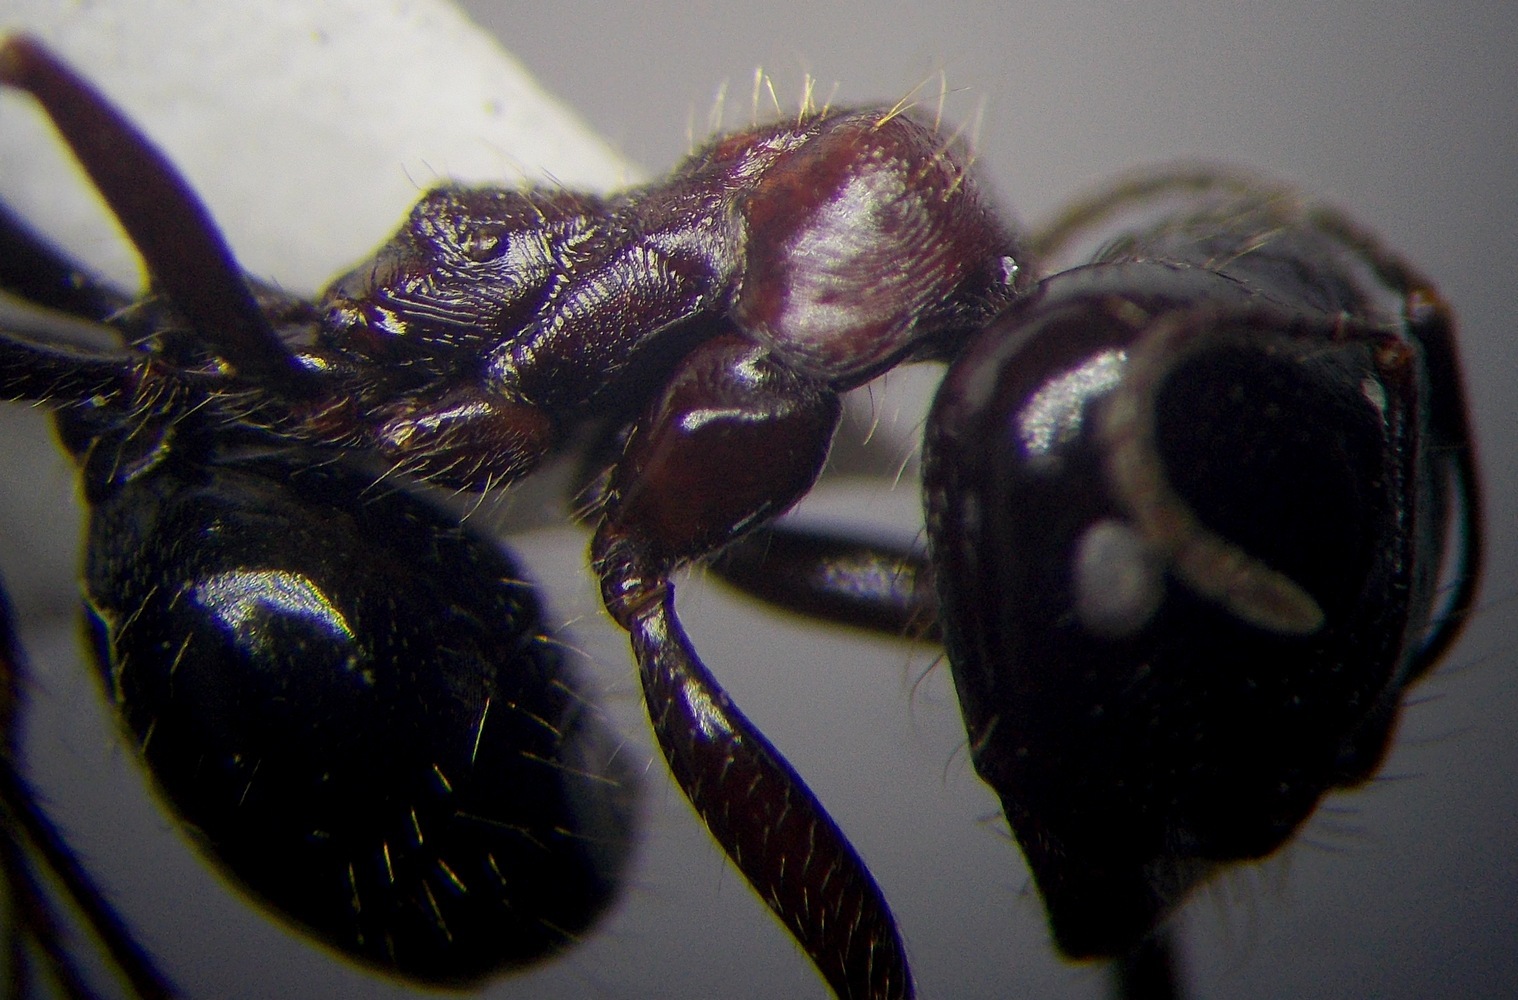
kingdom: Animalia
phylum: Arthropoda
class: Insecta
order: Hymenoptera
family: Formicidae
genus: Messor
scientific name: Messor denticulatus
